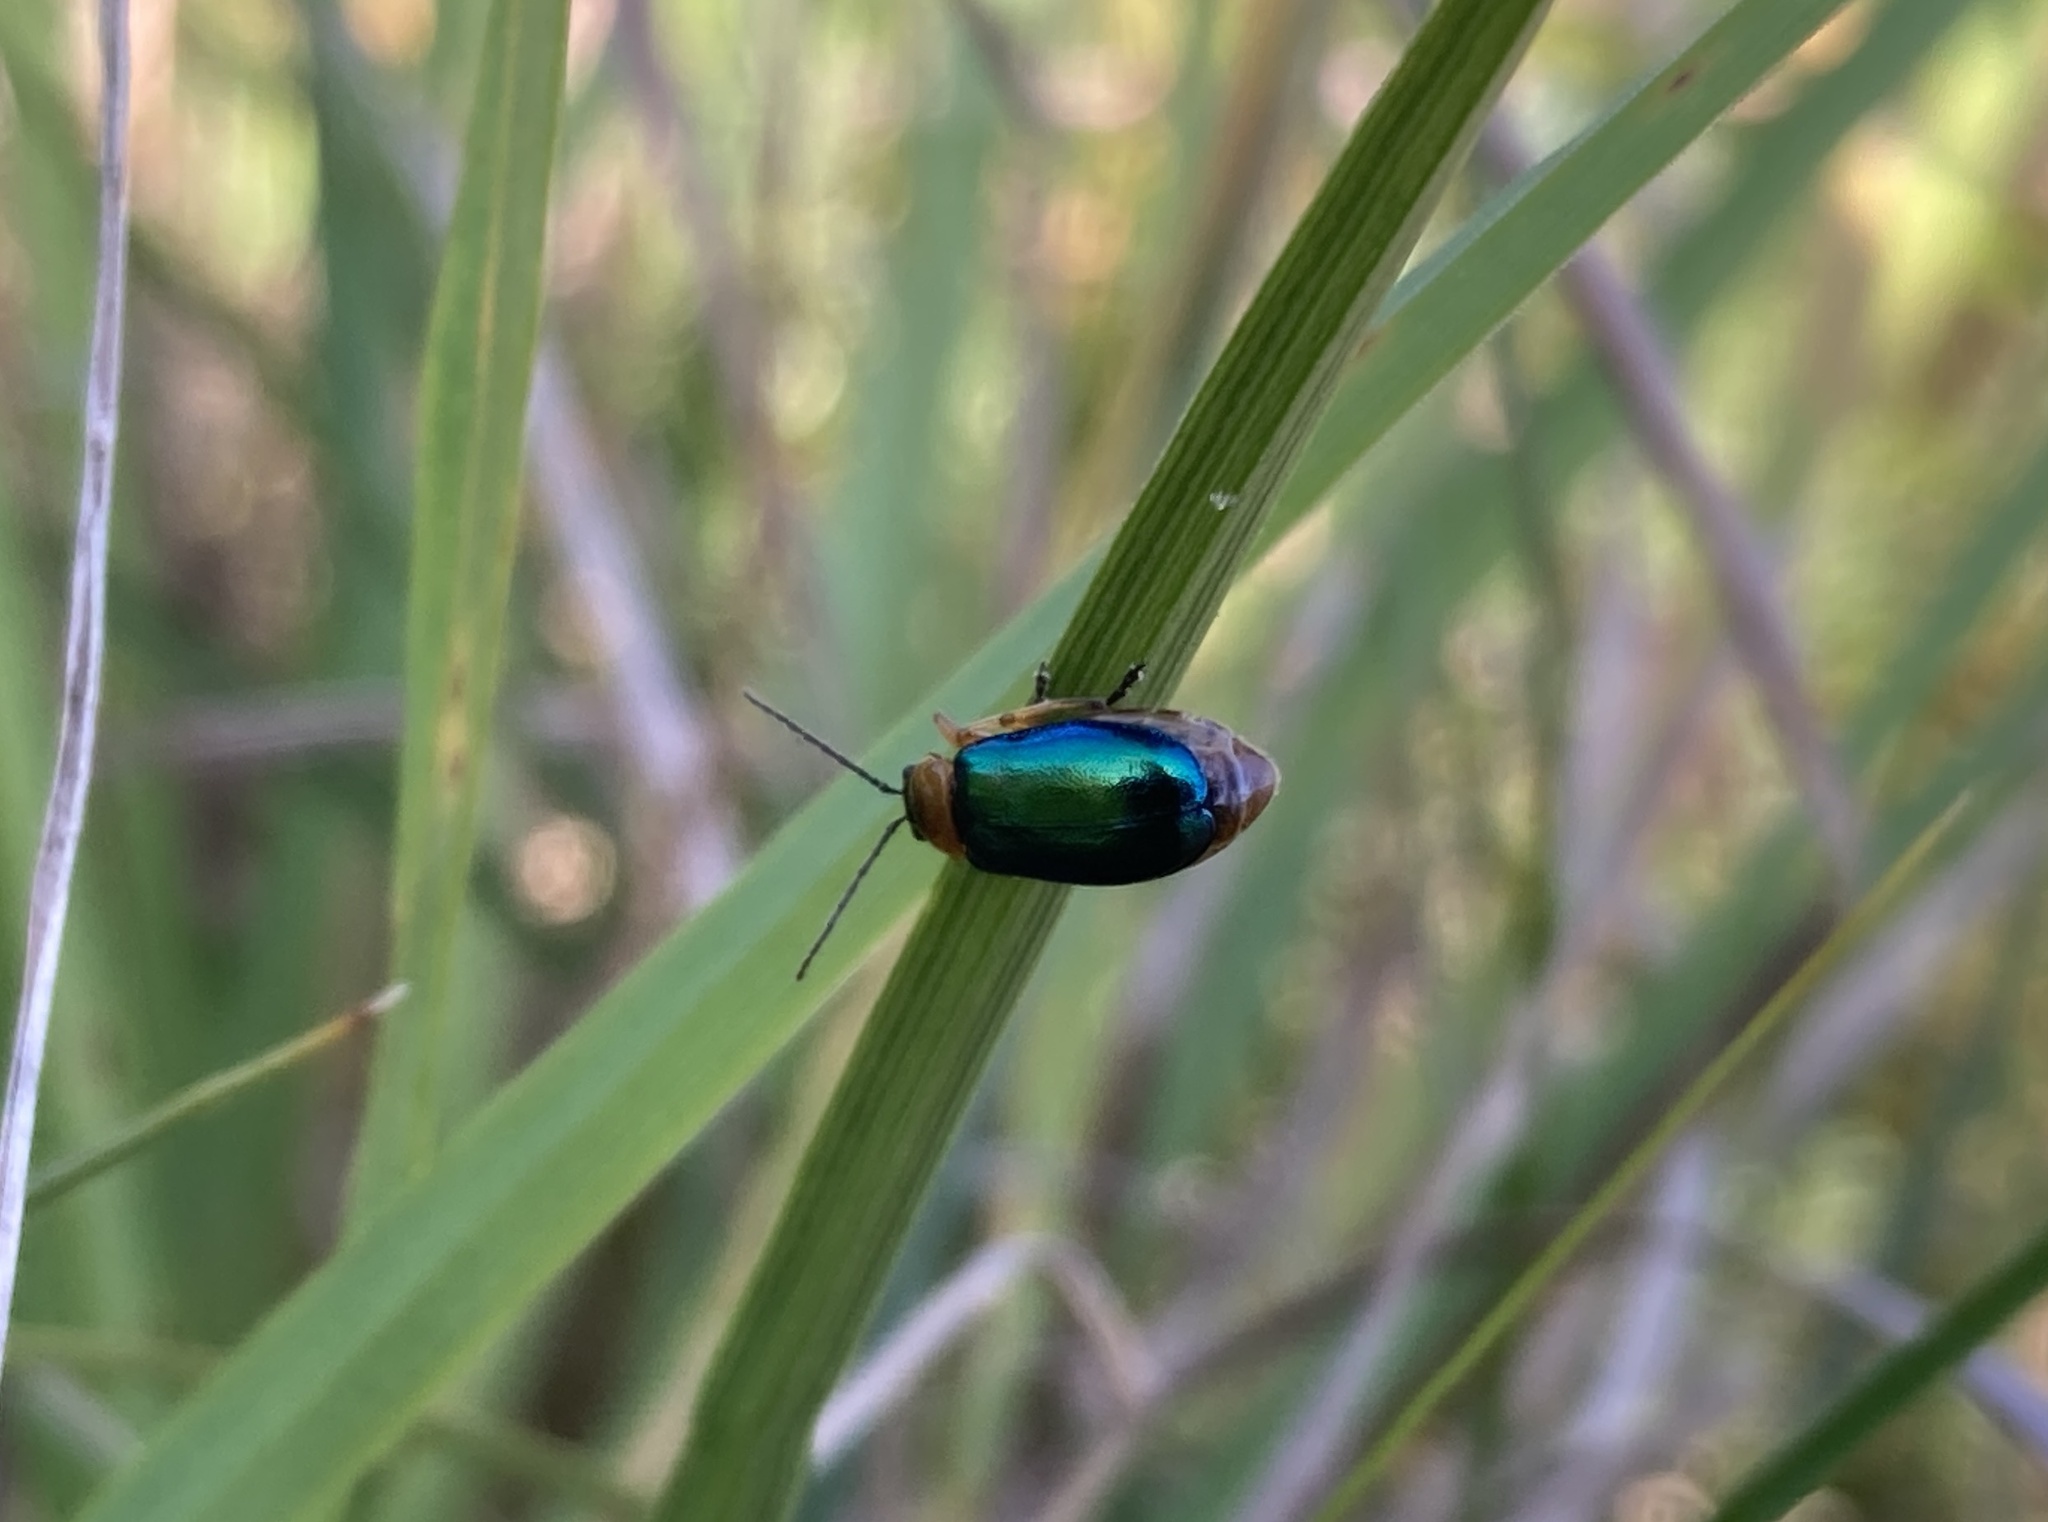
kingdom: Animalia
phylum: Arthropoda
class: Insecta
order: Coleoptera
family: Chrysomelidae
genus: Sermylassa
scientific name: Sermylassa halensis
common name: Leaf beetle
